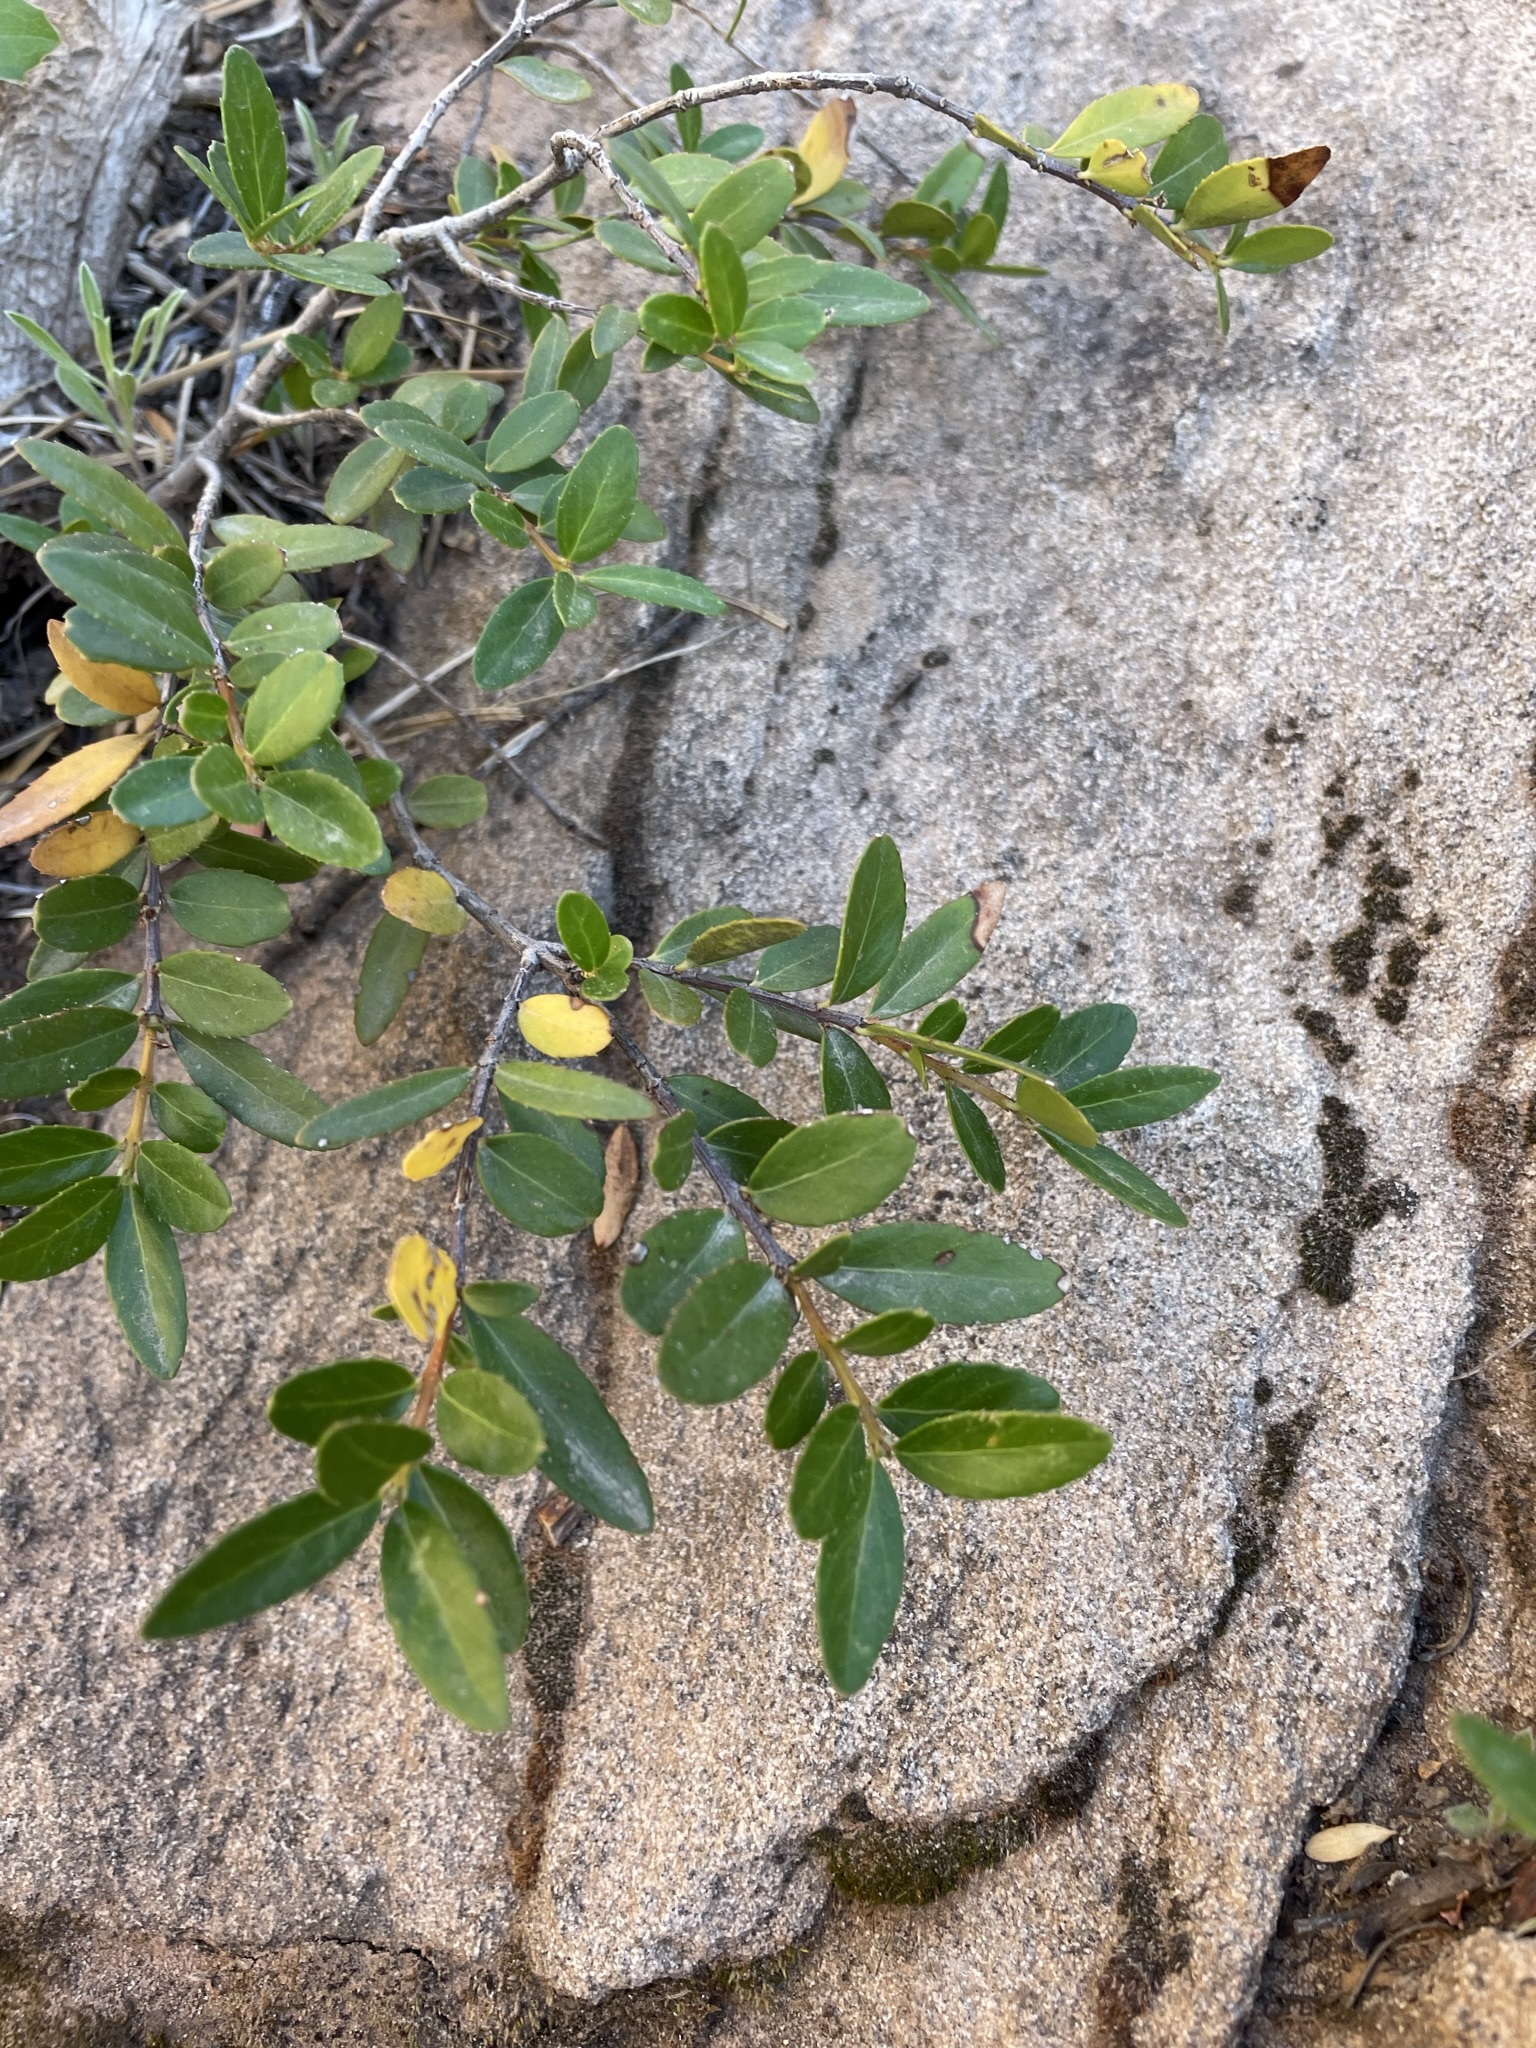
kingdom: Plantae
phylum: Tracheophyta
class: Magnoliopsida
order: Celastrales
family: Celastraceae
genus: Paxistima
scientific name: Paxistima myrsinites
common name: Mountain-lover
